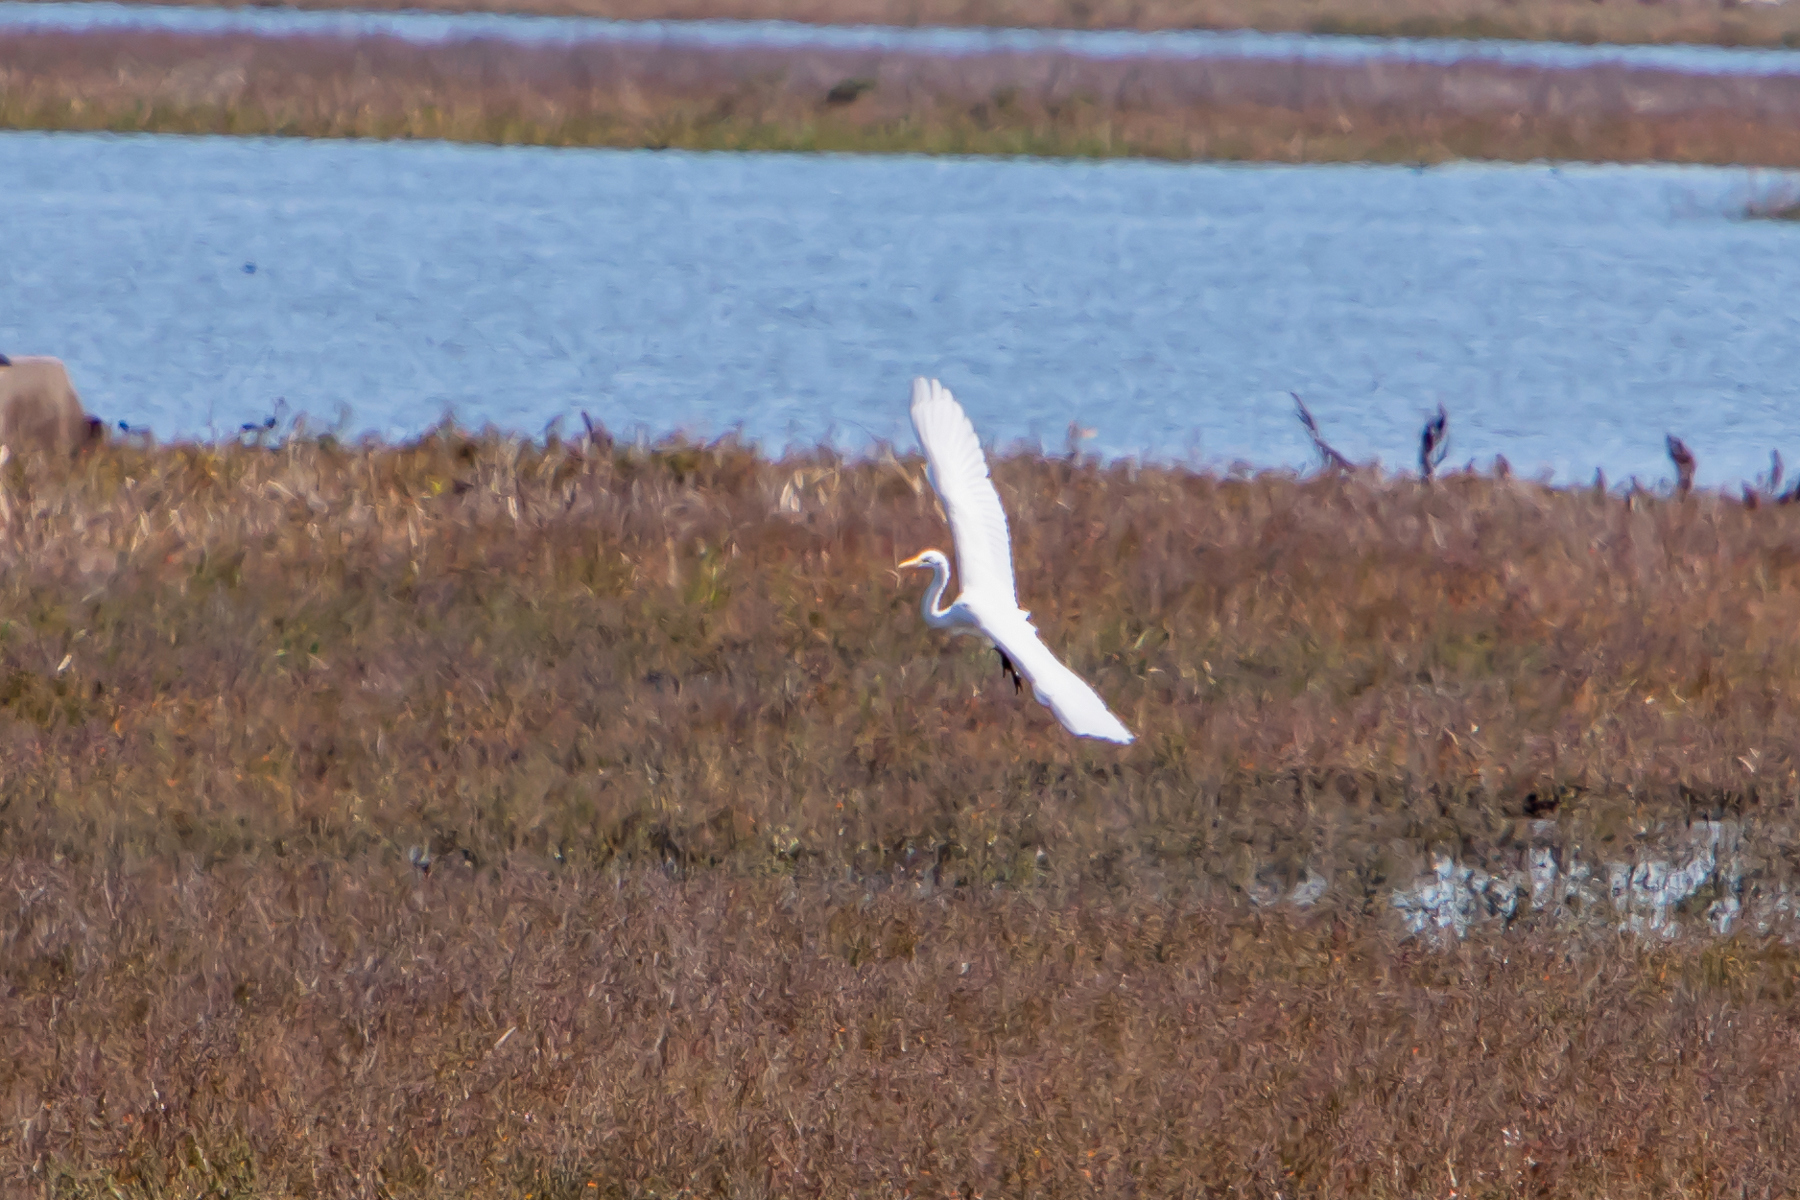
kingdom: Animalia
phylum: Chordata
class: Aves
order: Pelecaniformes
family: Ardeidae
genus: Ardea
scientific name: Ardea alba
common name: Great egret
